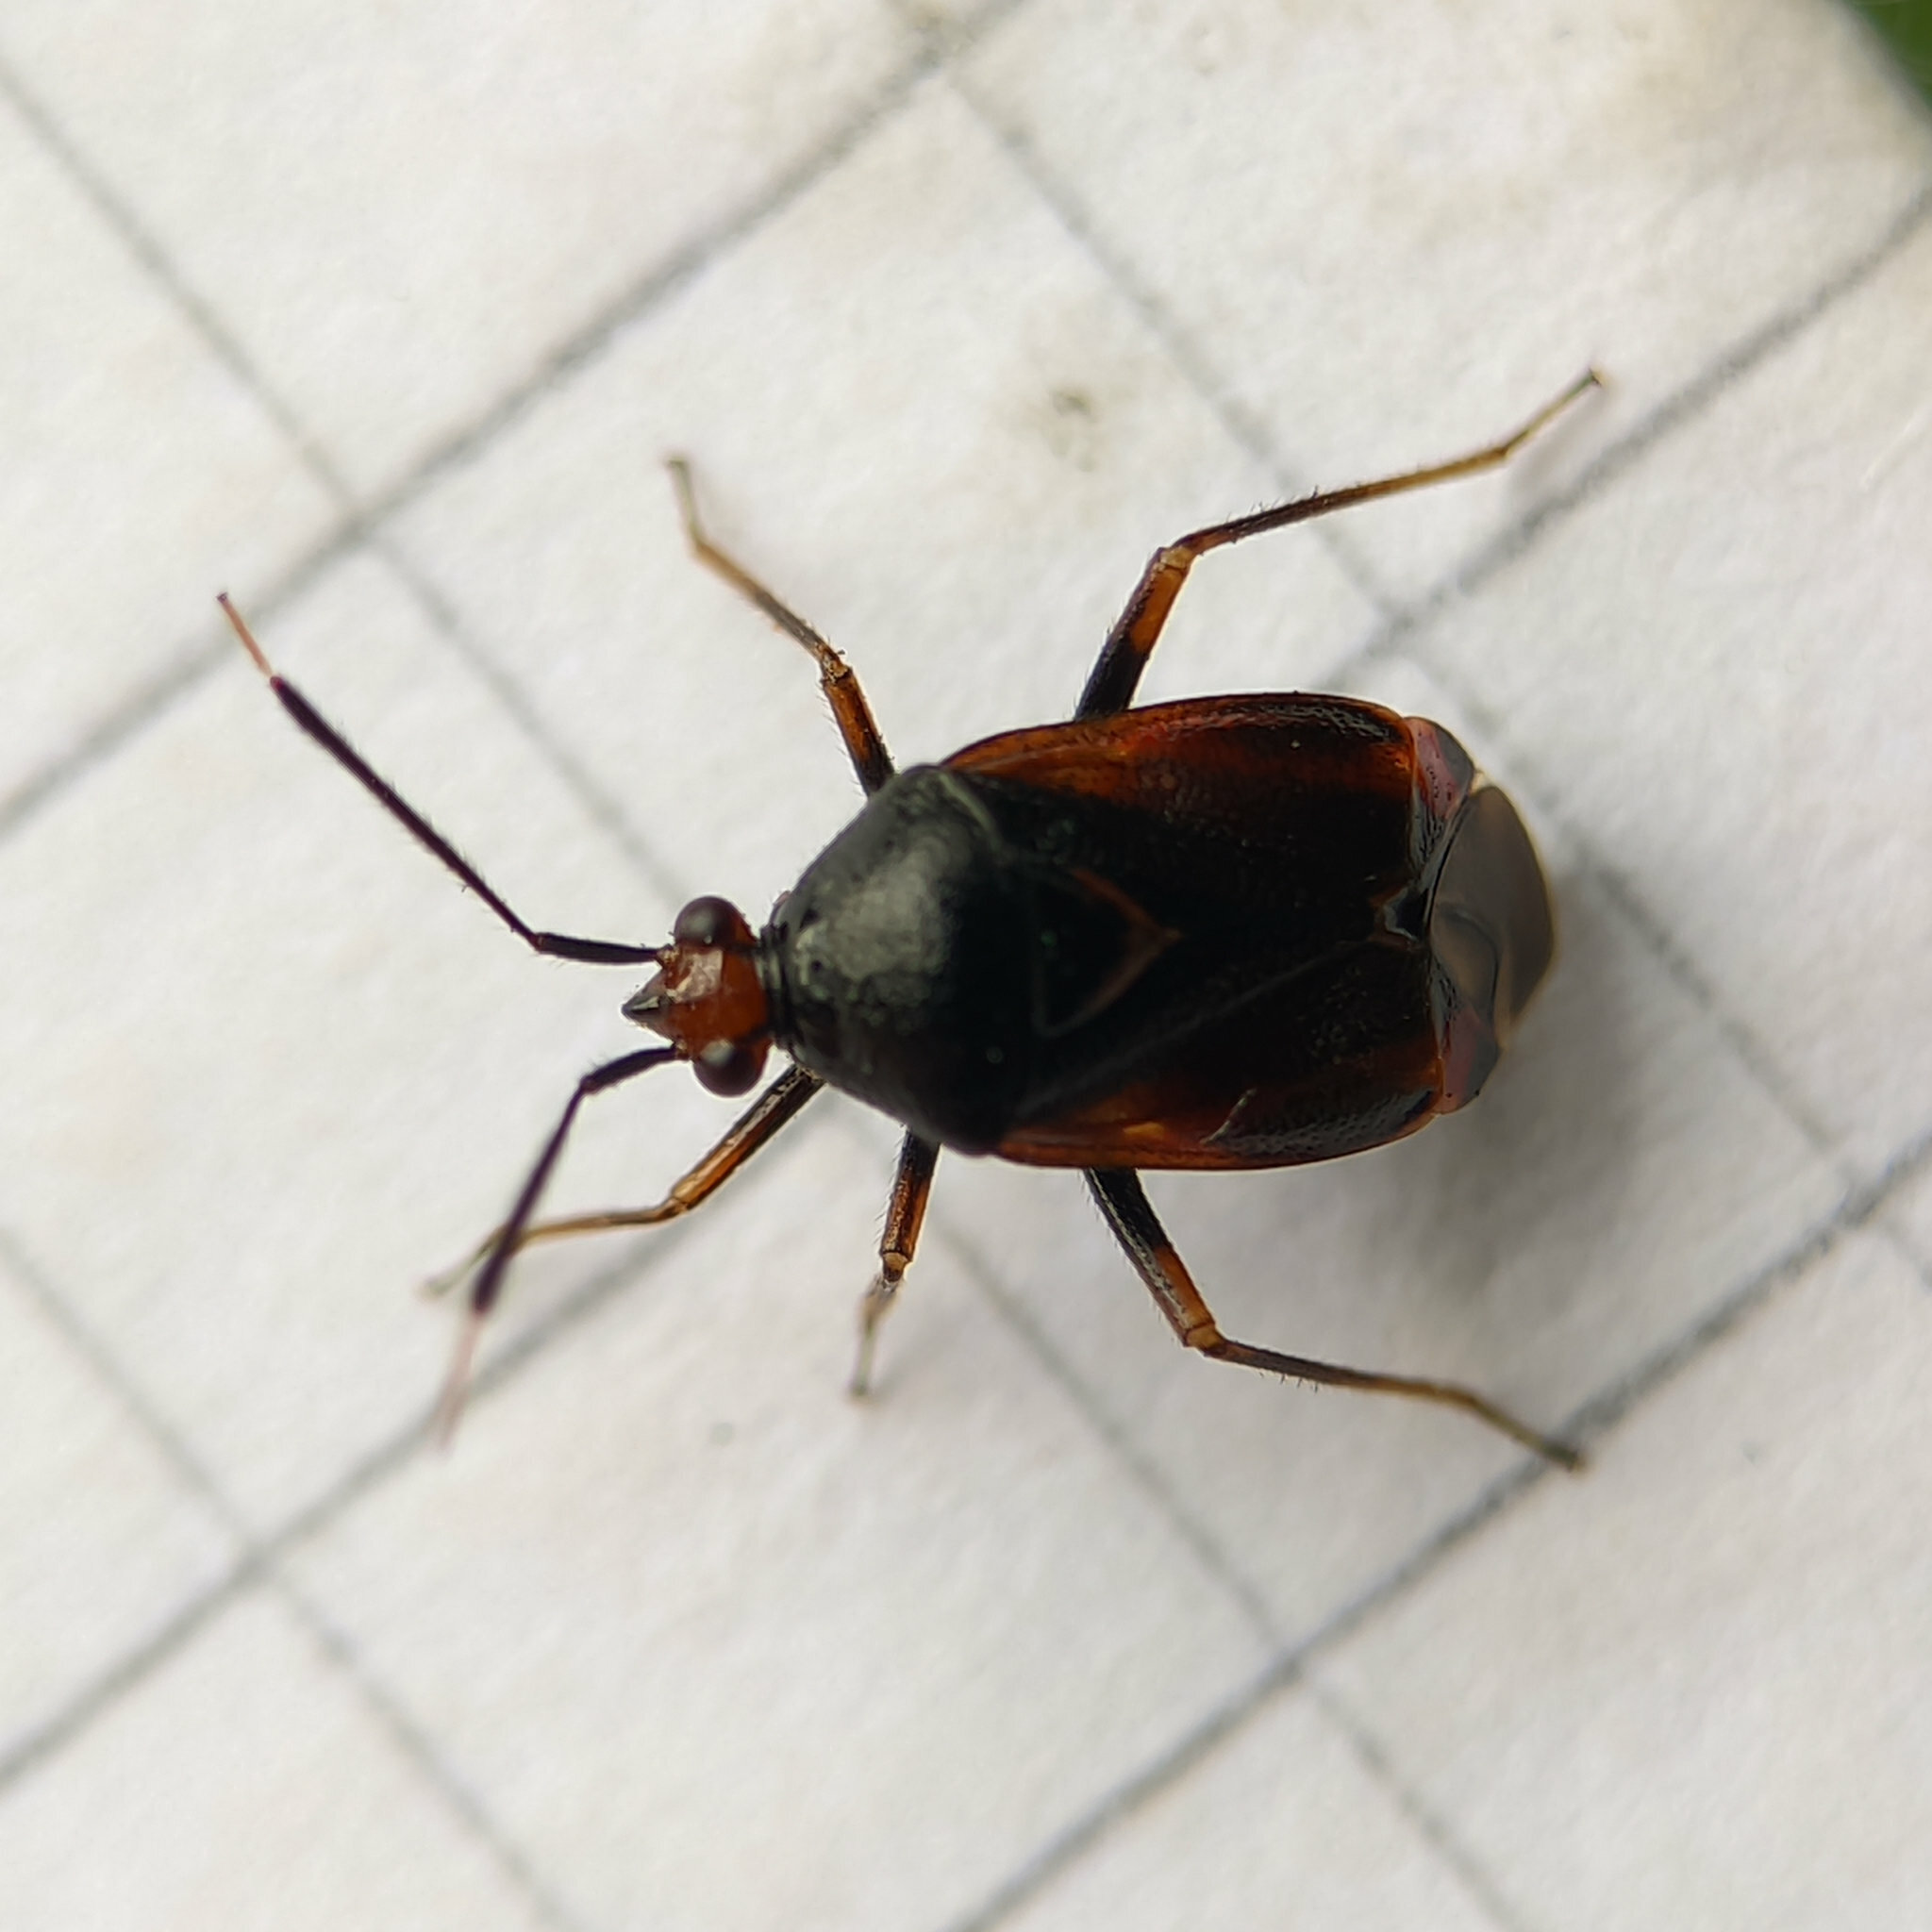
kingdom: Animalia
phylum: Arthropoda
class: Insecta
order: Hemiptera
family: Miridae
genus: Deraeocoris
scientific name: Deraeocoris ruber
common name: Plant bug
